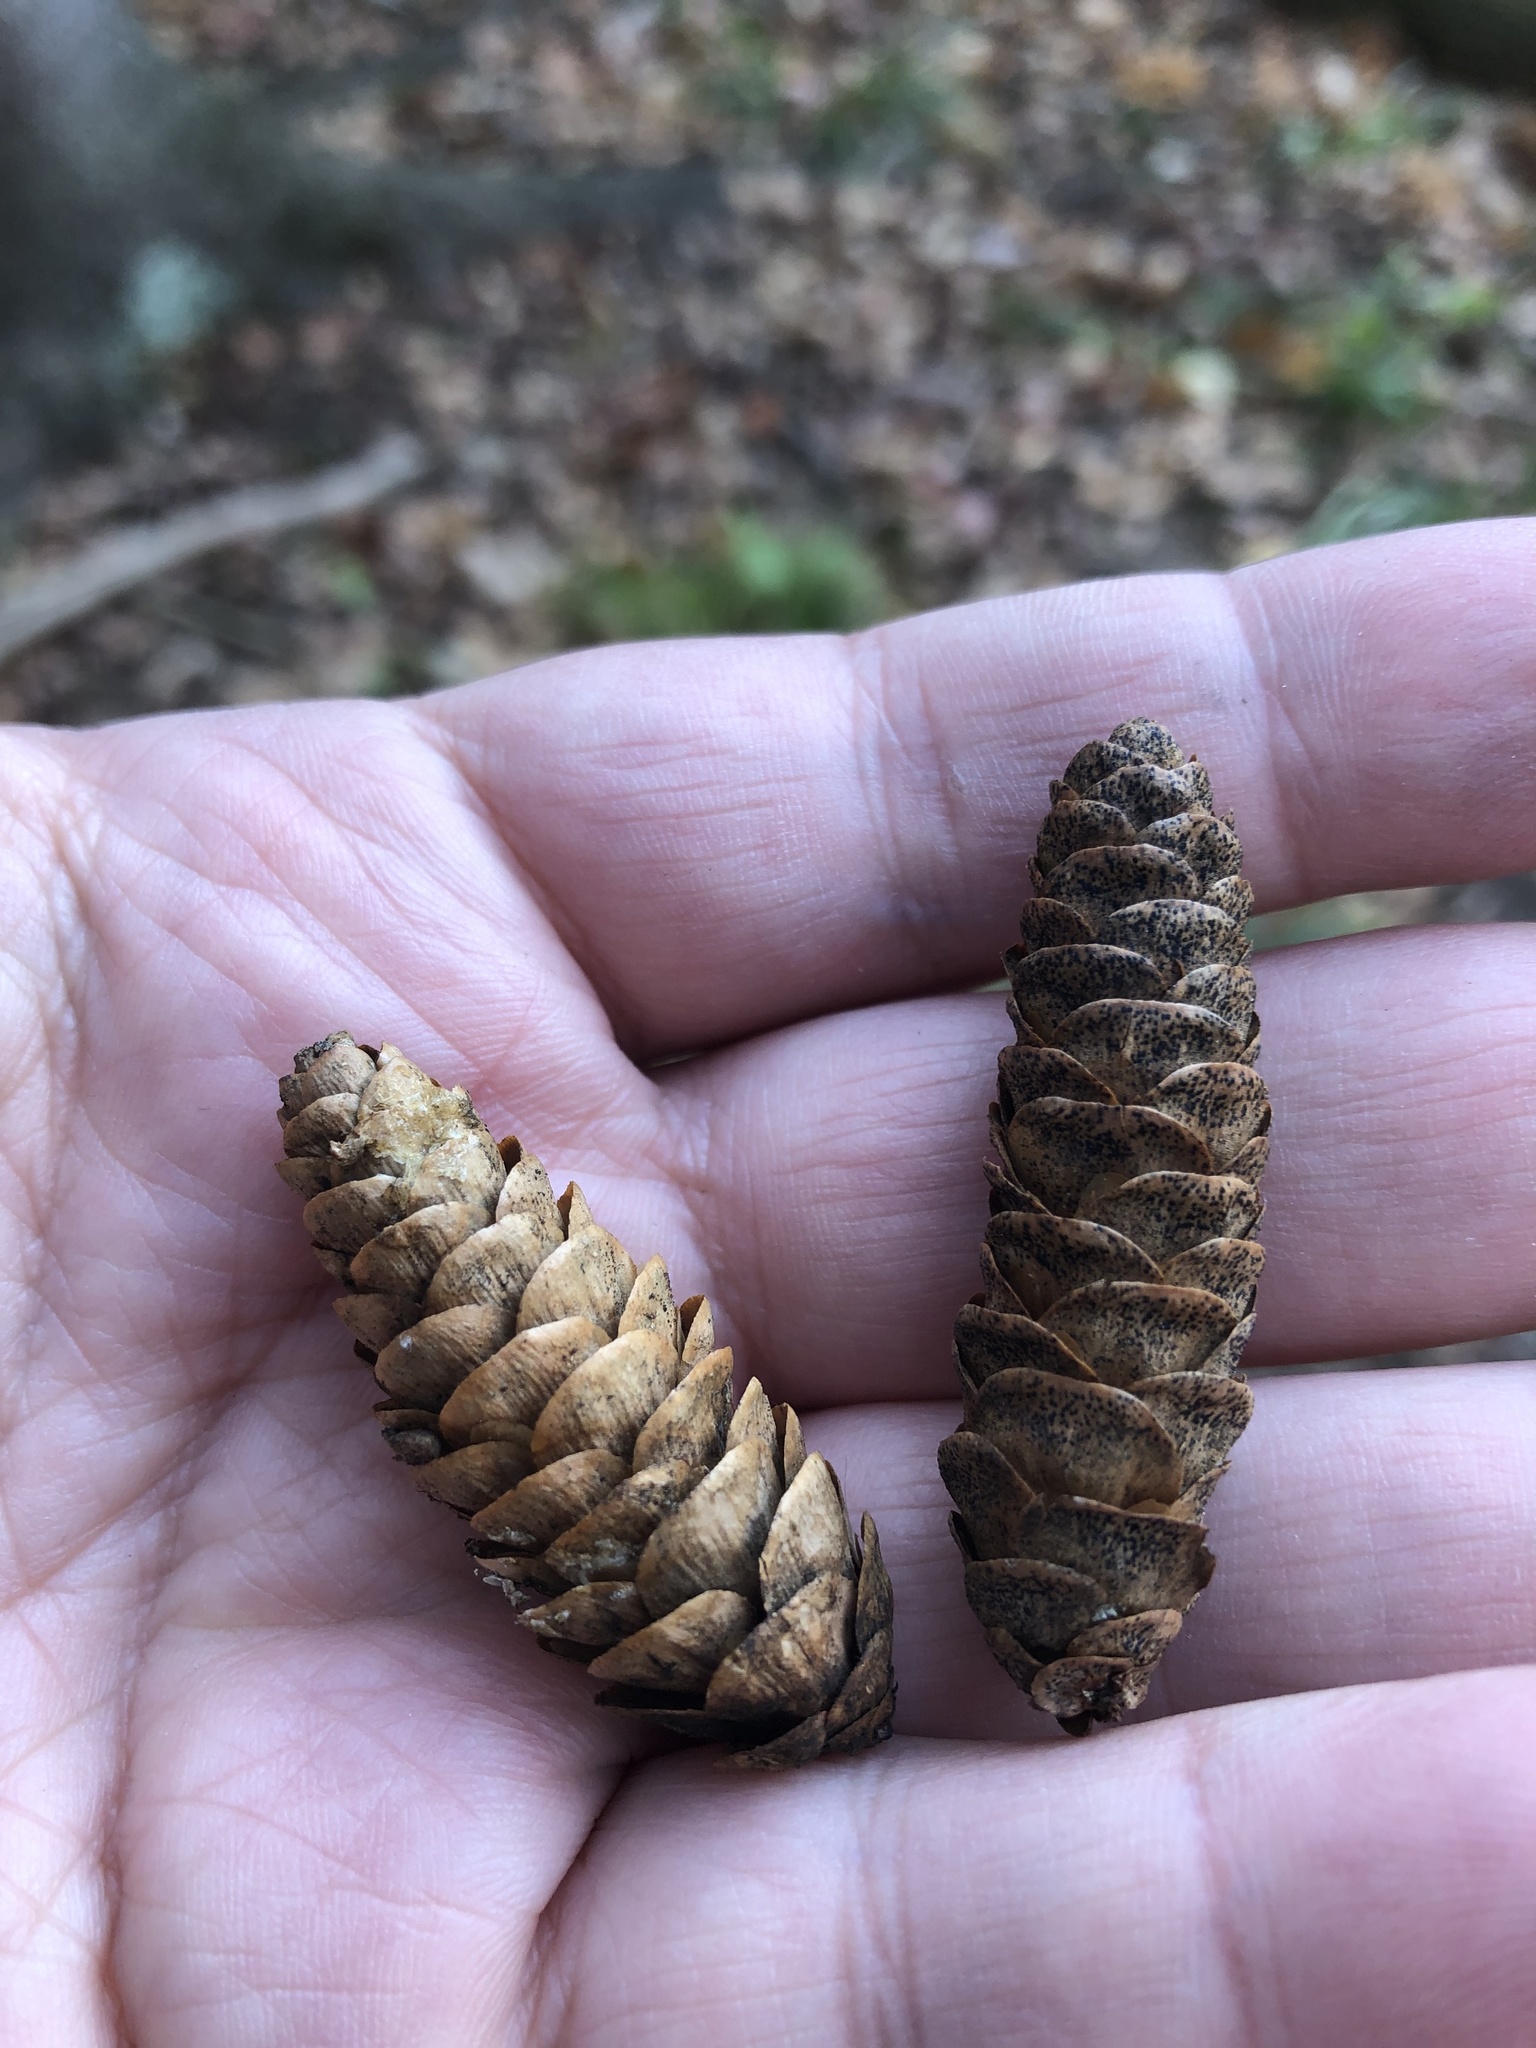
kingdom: Plantae
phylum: Tracheophyta
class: Pinopsida
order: Pinales
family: Pinaceae
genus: Picea
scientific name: Picea glauca
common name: White spruce
